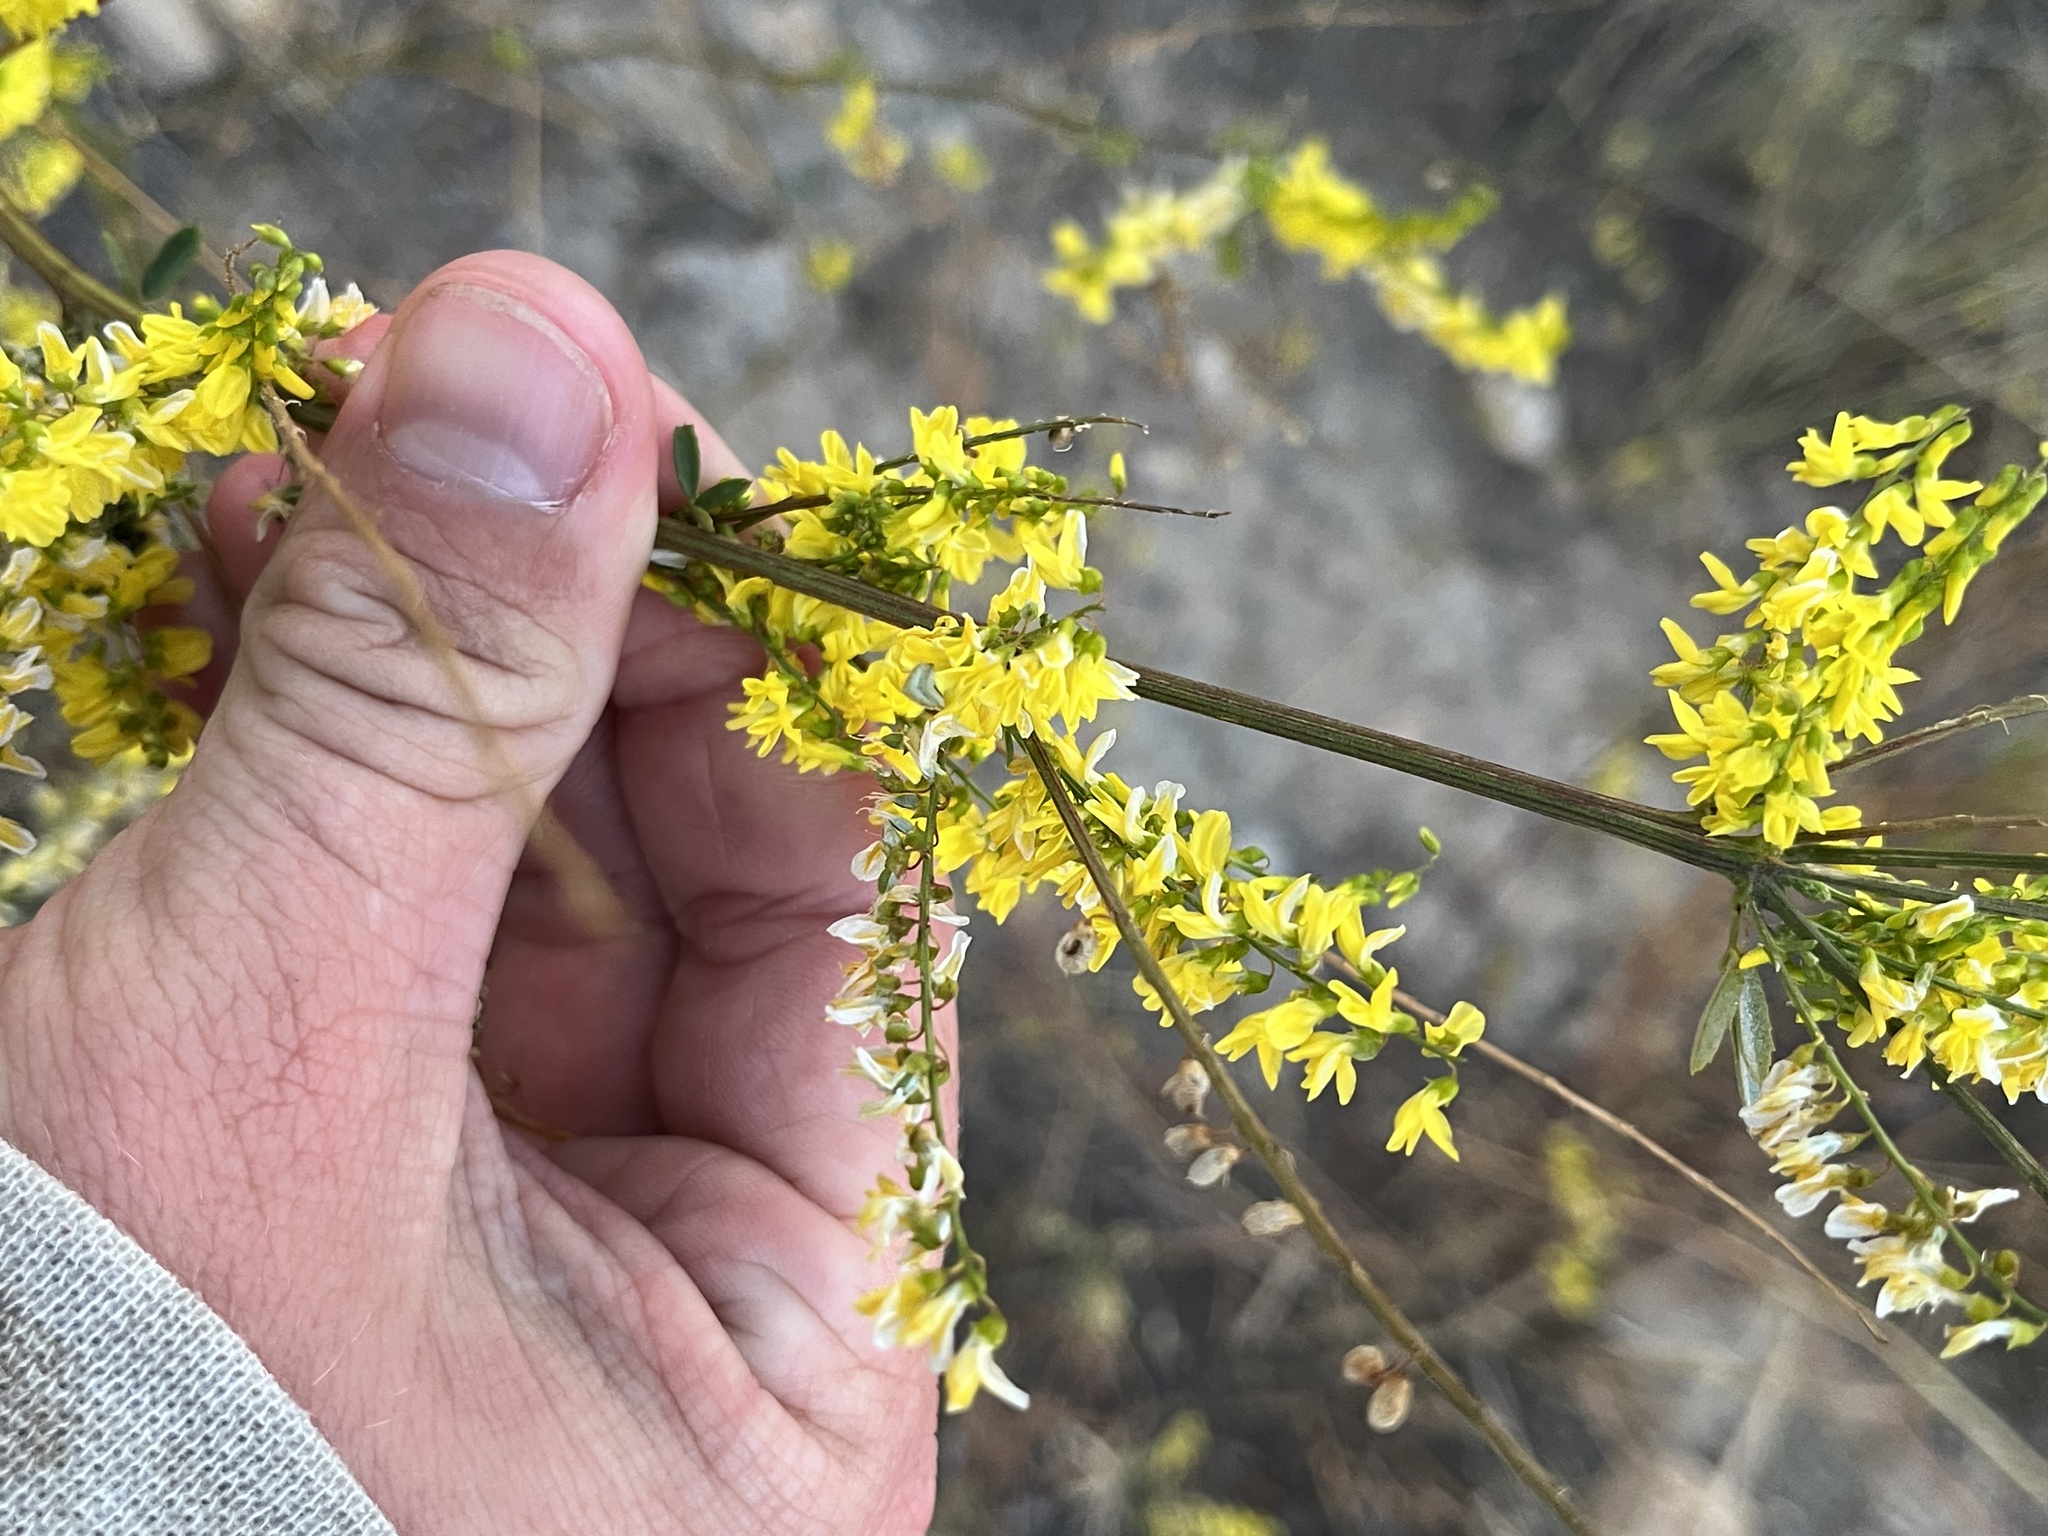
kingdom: Plantae
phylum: Tracheophyta
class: Magnoliopsida
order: Fabales
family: Fabaceae
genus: Melilotus
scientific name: Melilotus officinalis
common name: Sweetclover
